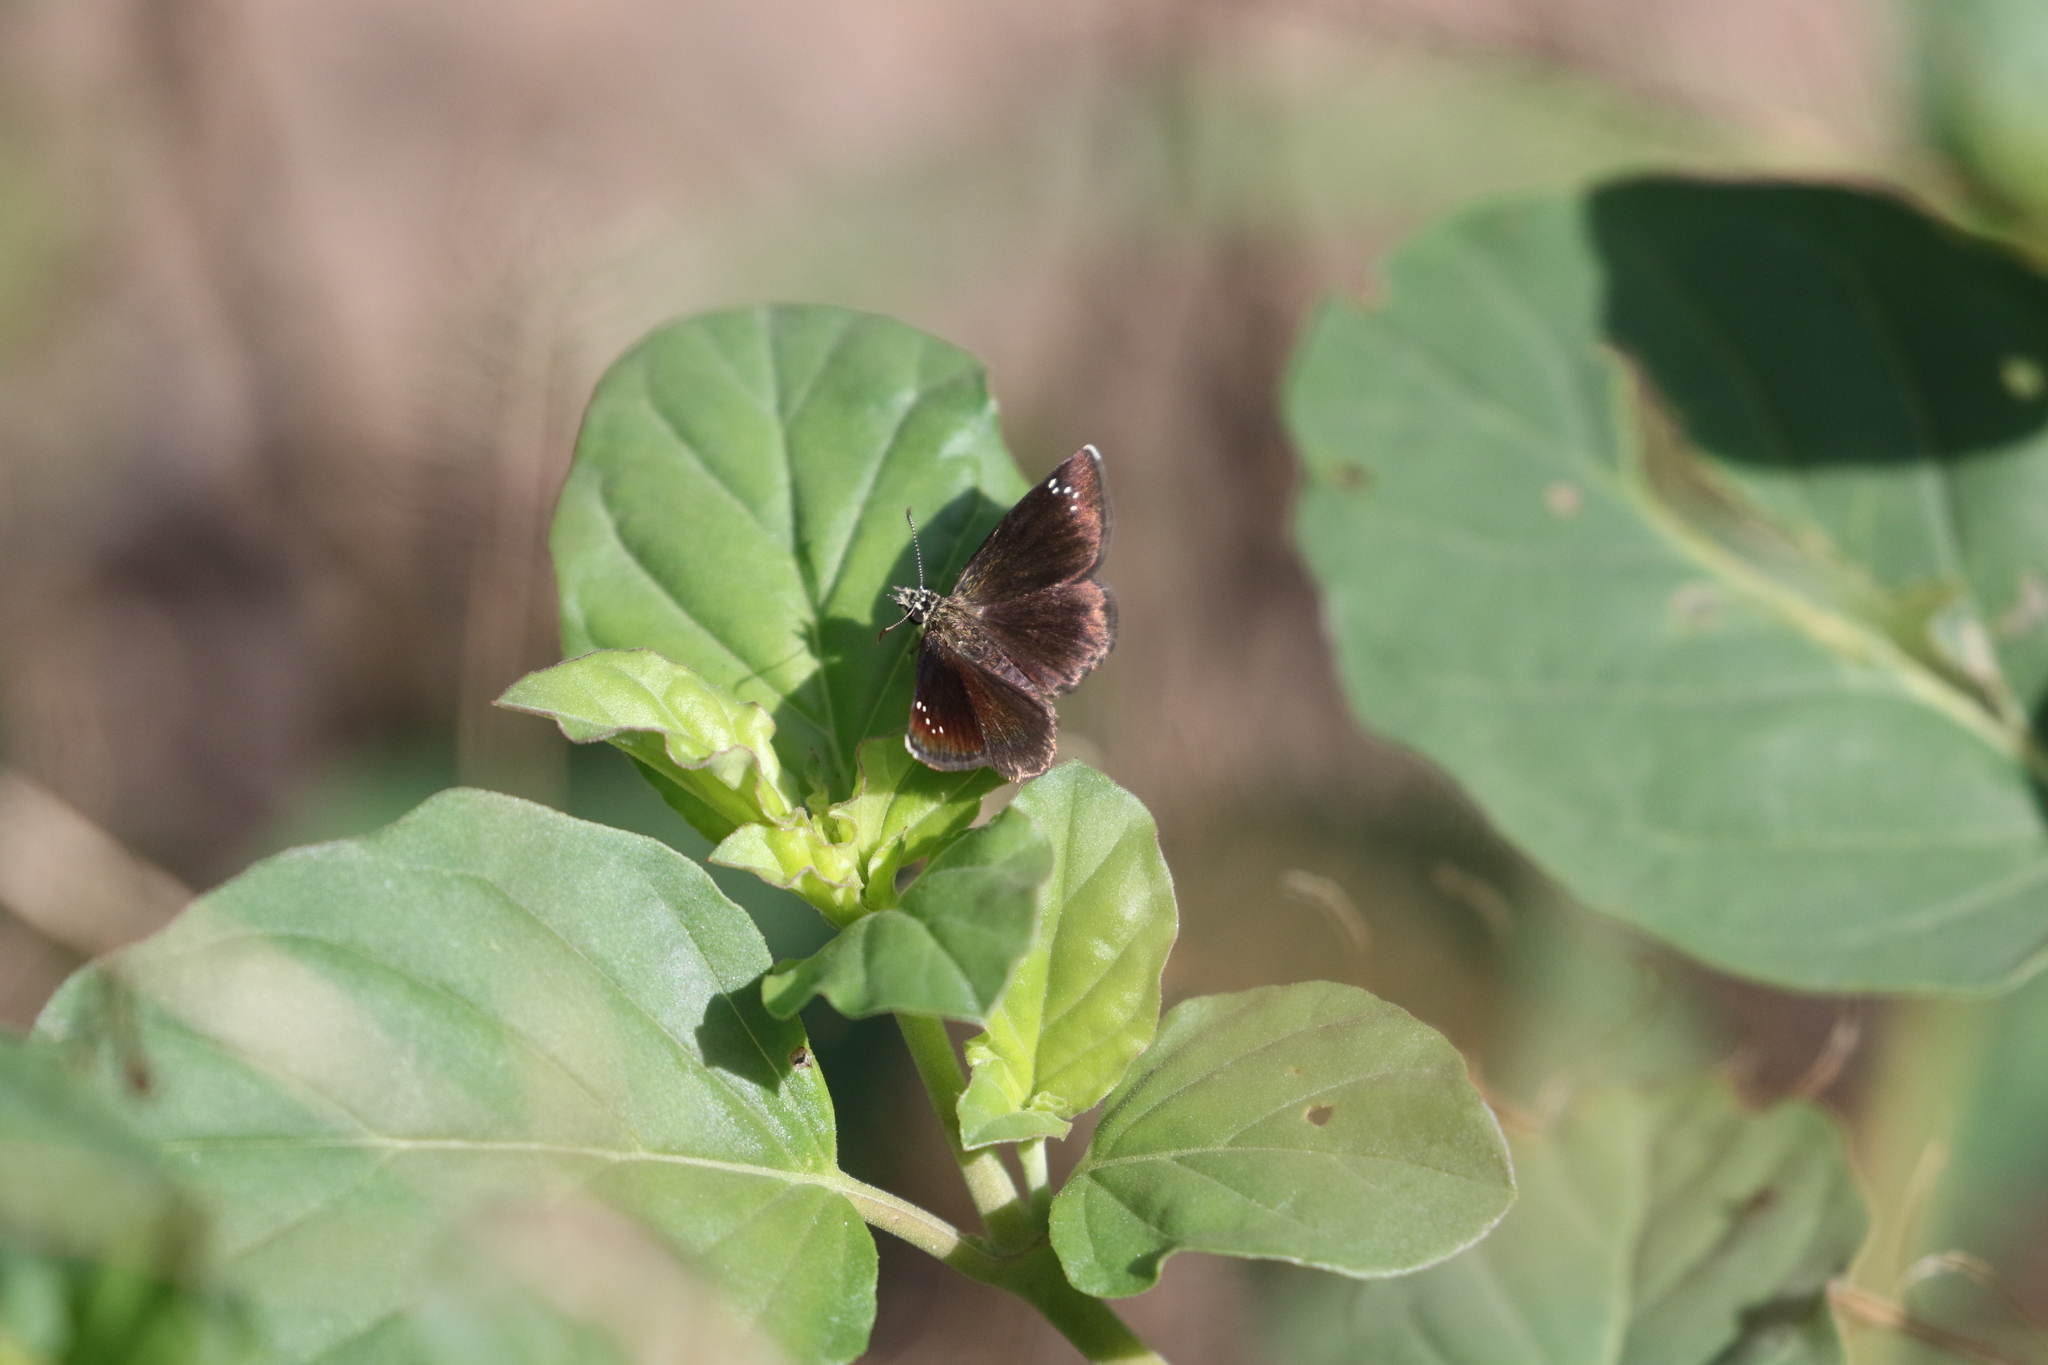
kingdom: Animalia
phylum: Arthropoda
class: Insecta
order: Lepidoptera
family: Hesperiidae
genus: Pholisora
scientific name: Pholisora catullus
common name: Common sootywing
